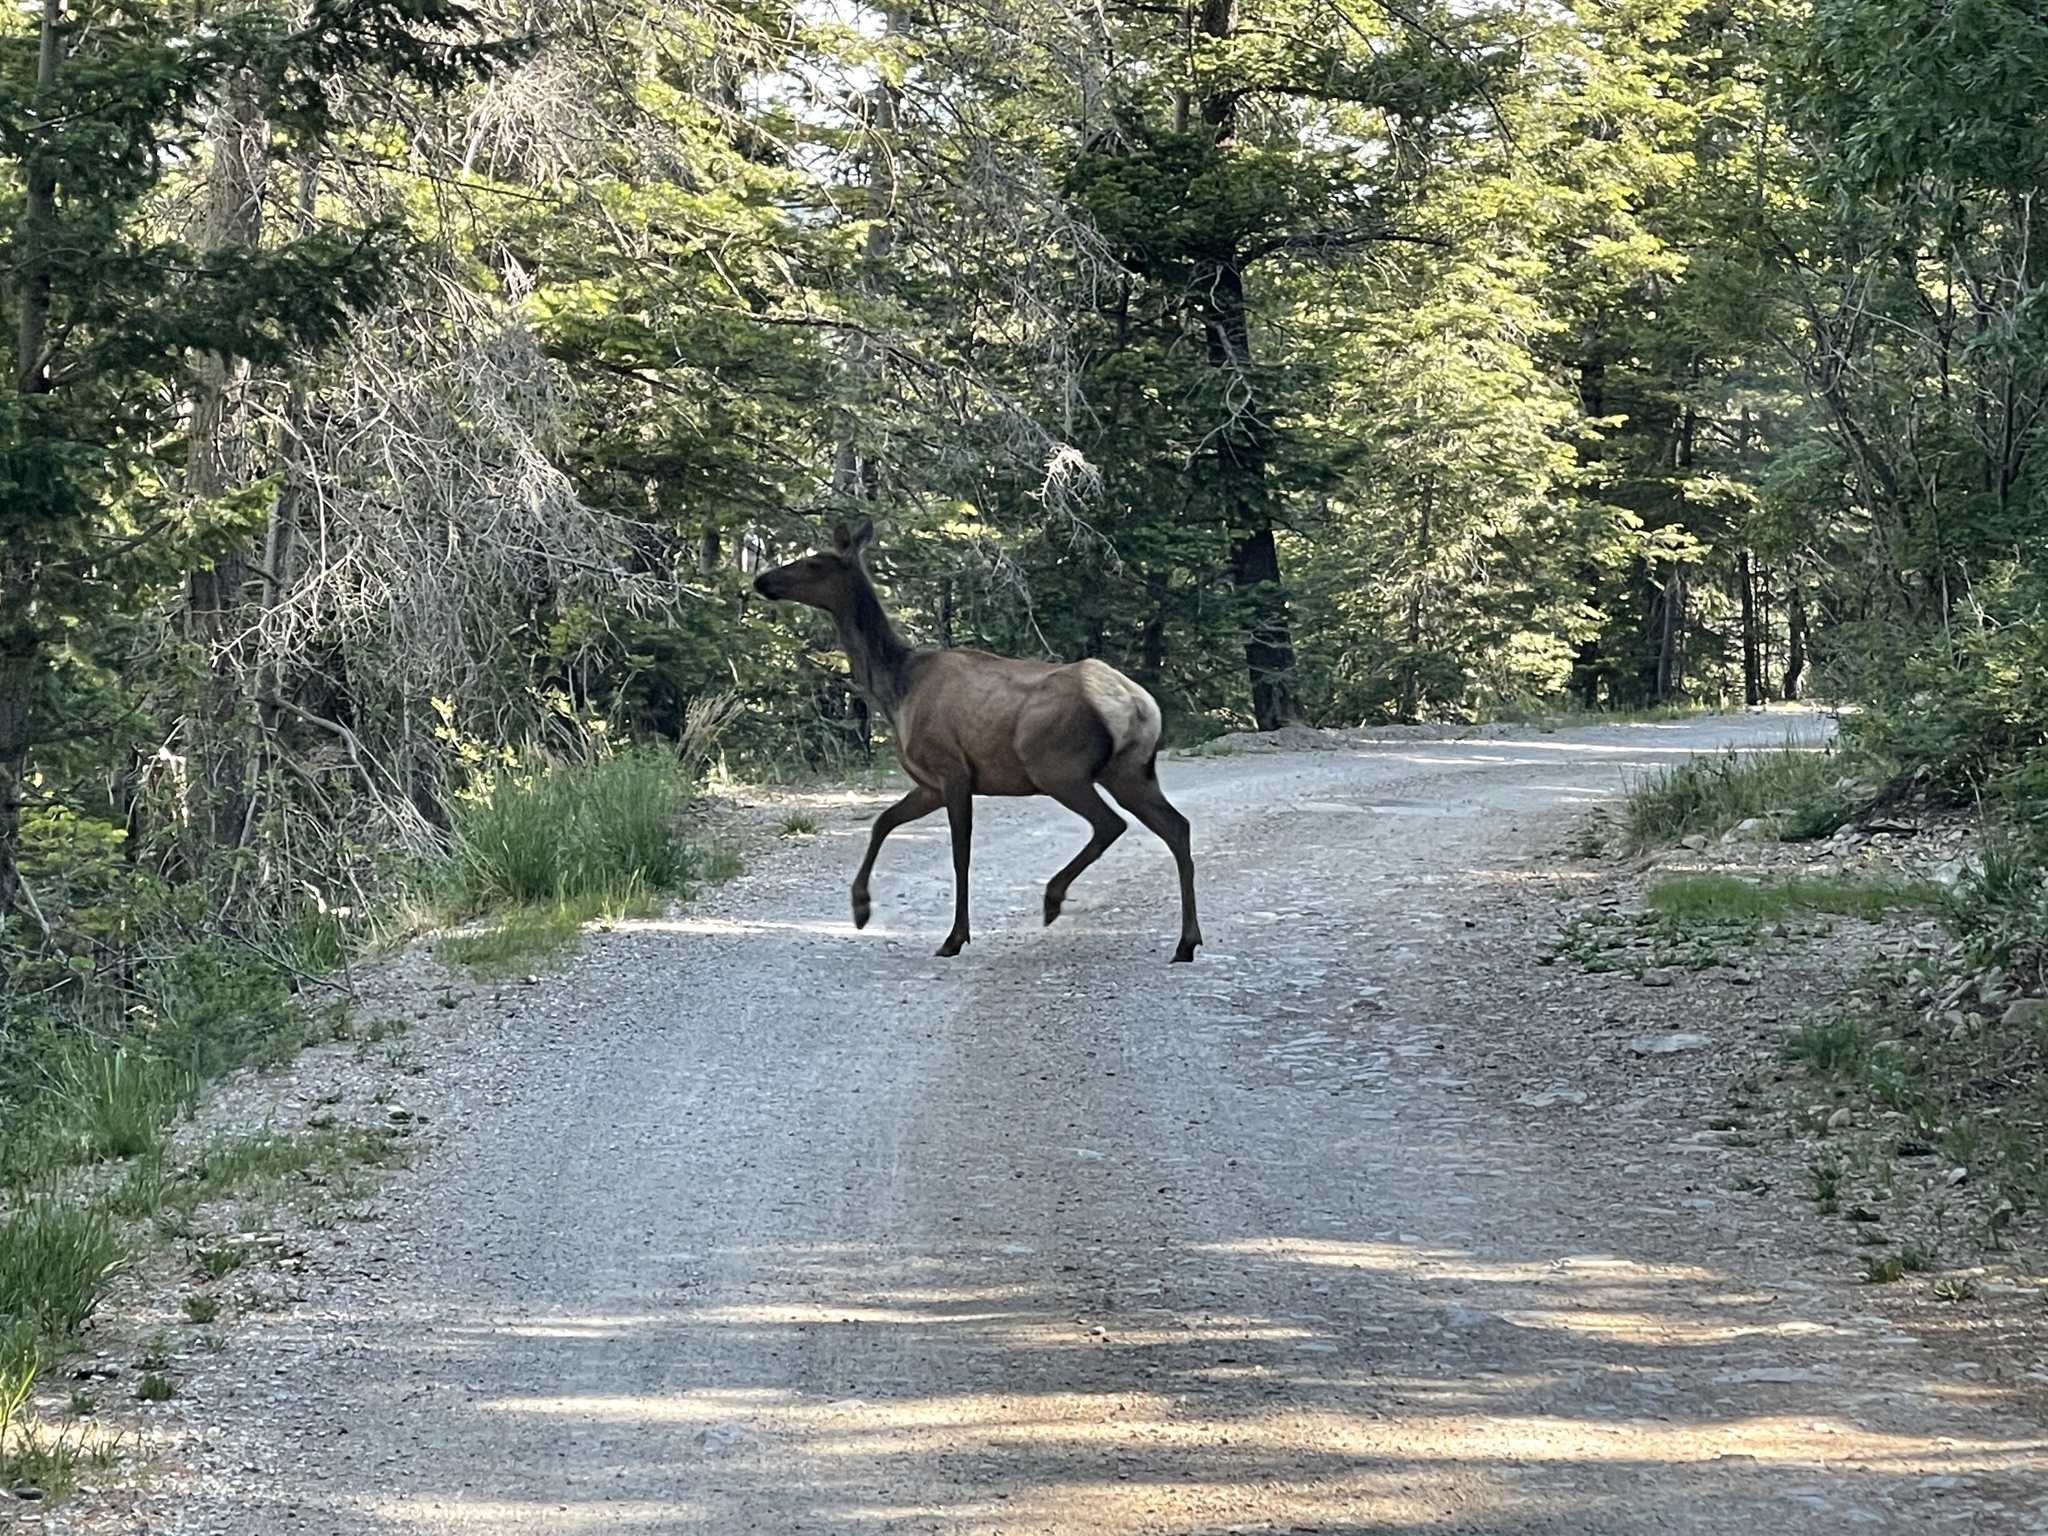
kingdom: Animalia
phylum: Chordata
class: Mammalia
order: Artiodactyla
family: Cervidae
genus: Cervus
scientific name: Cervus elaphus
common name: Red deer
